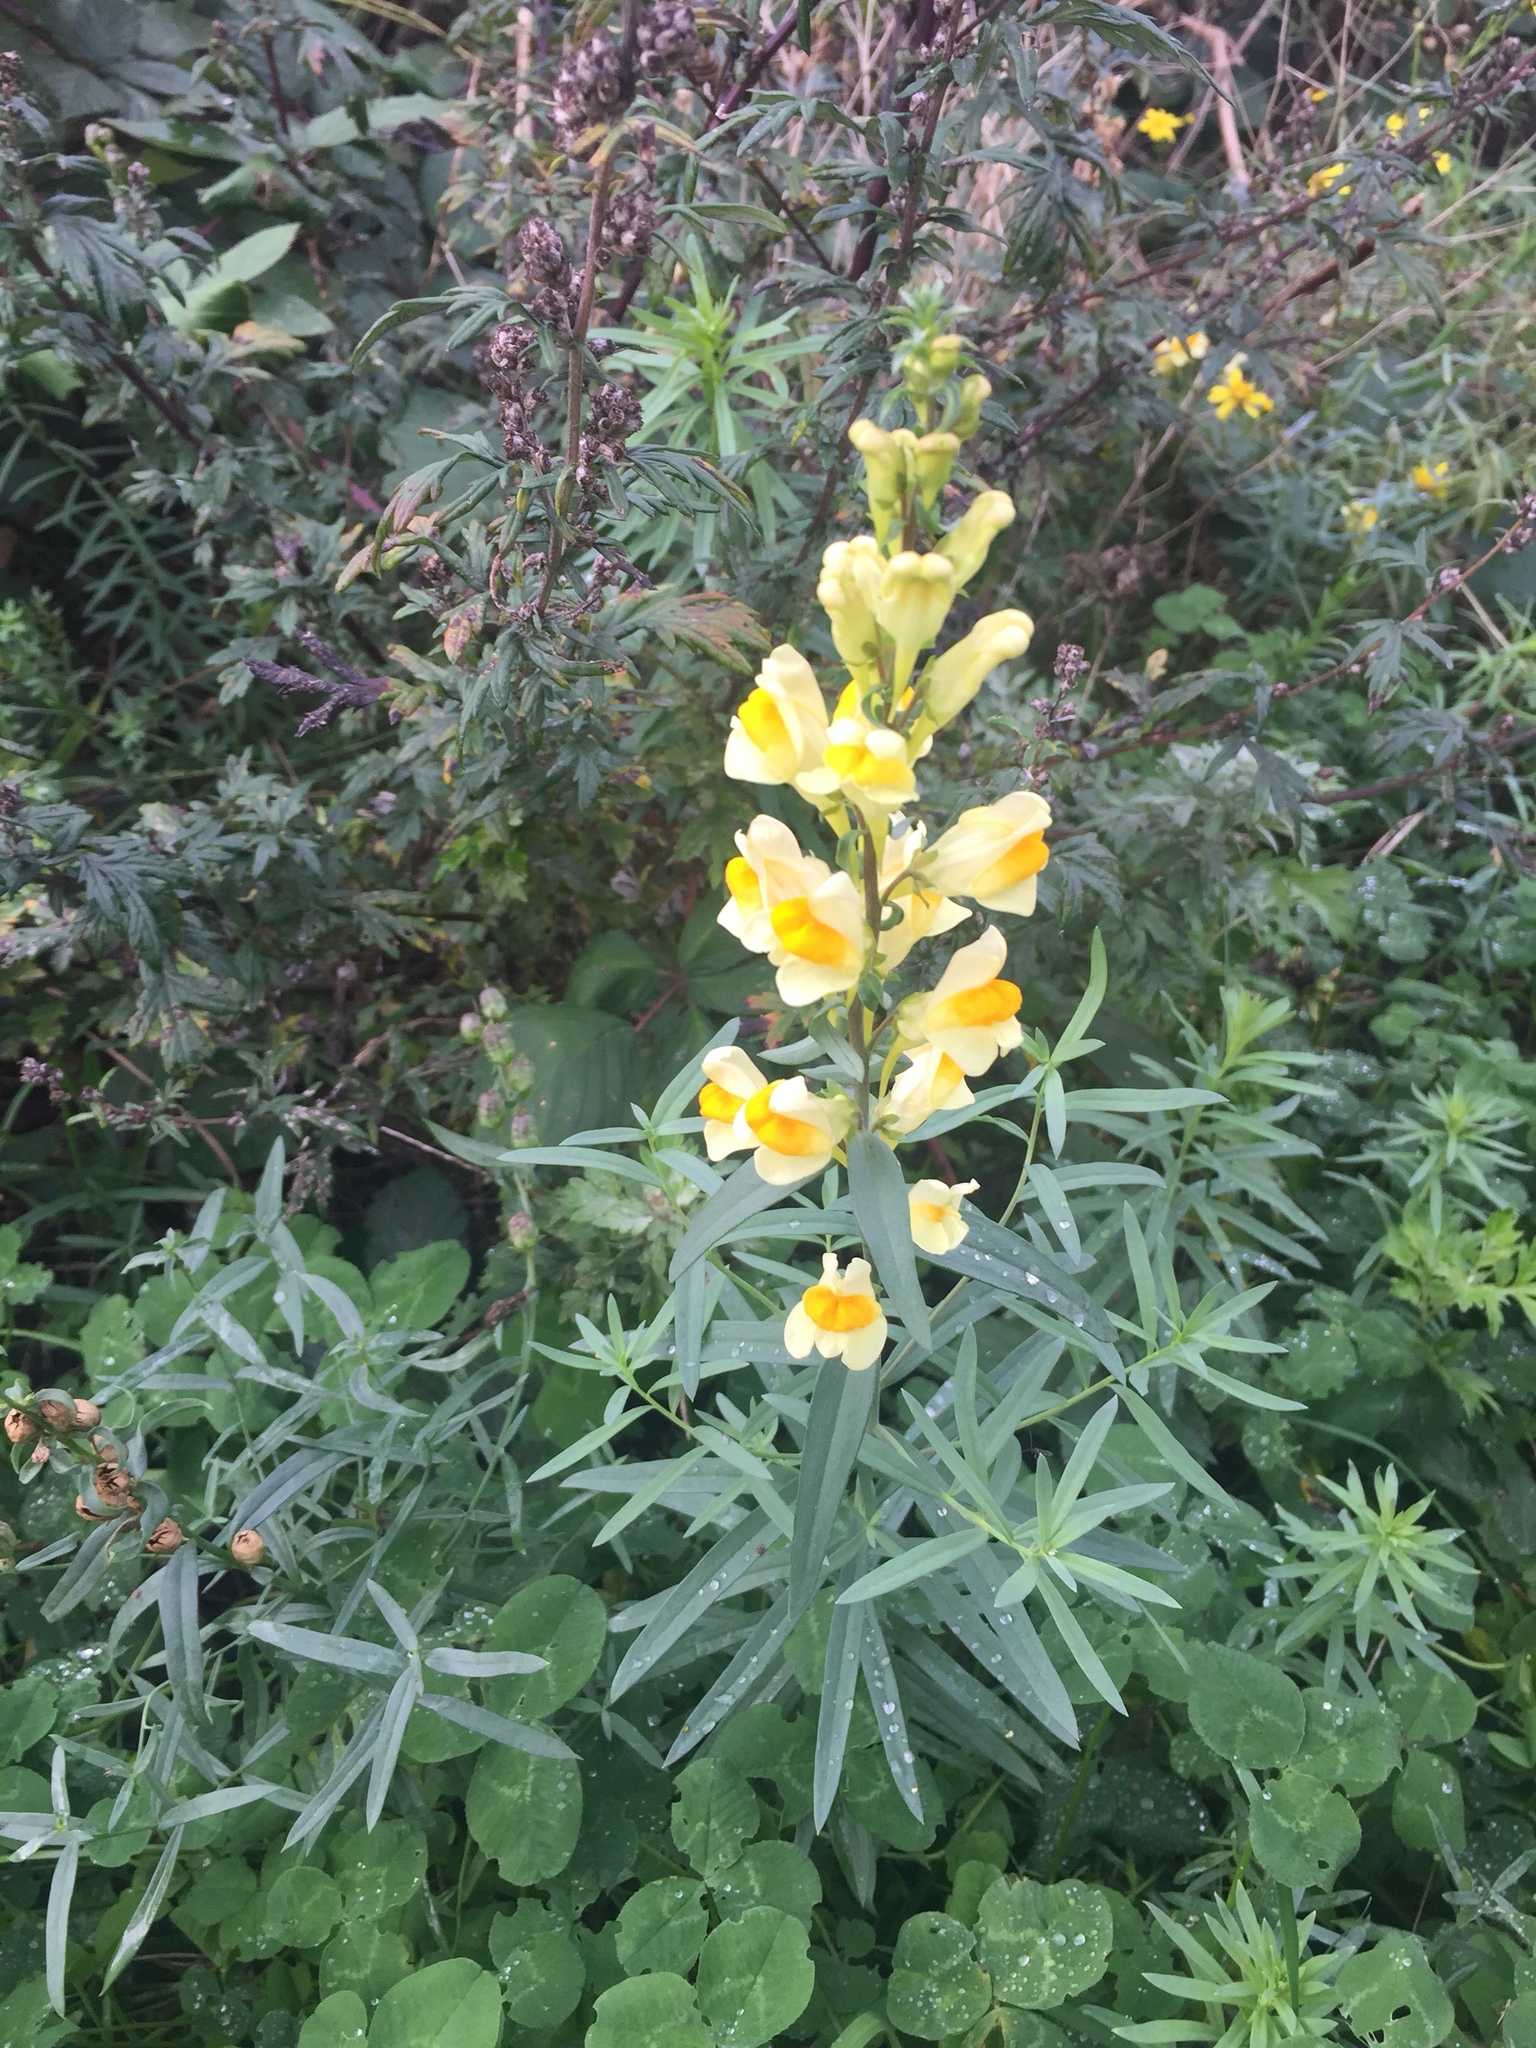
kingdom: Plantae
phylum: Tracheophyta
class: Magnoliopsida
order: Lamiales
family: Plantaginaceae
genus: Linaria
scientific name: Linaria vulgaris
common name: Butter and eggs
